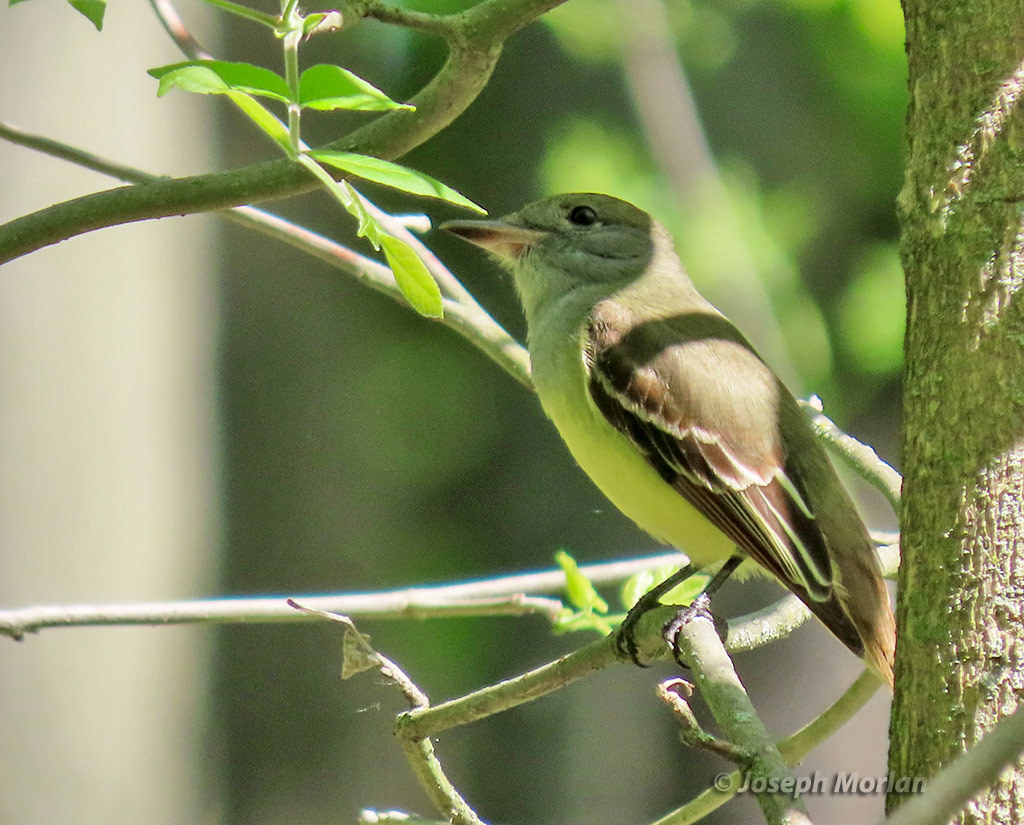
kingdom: Animalia
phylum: Chordata
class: Aves
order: Passeriformes
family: Tyrannidae
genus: Myiarchus
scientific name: Myiarchus crinitus
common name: Great crested flycatcher
